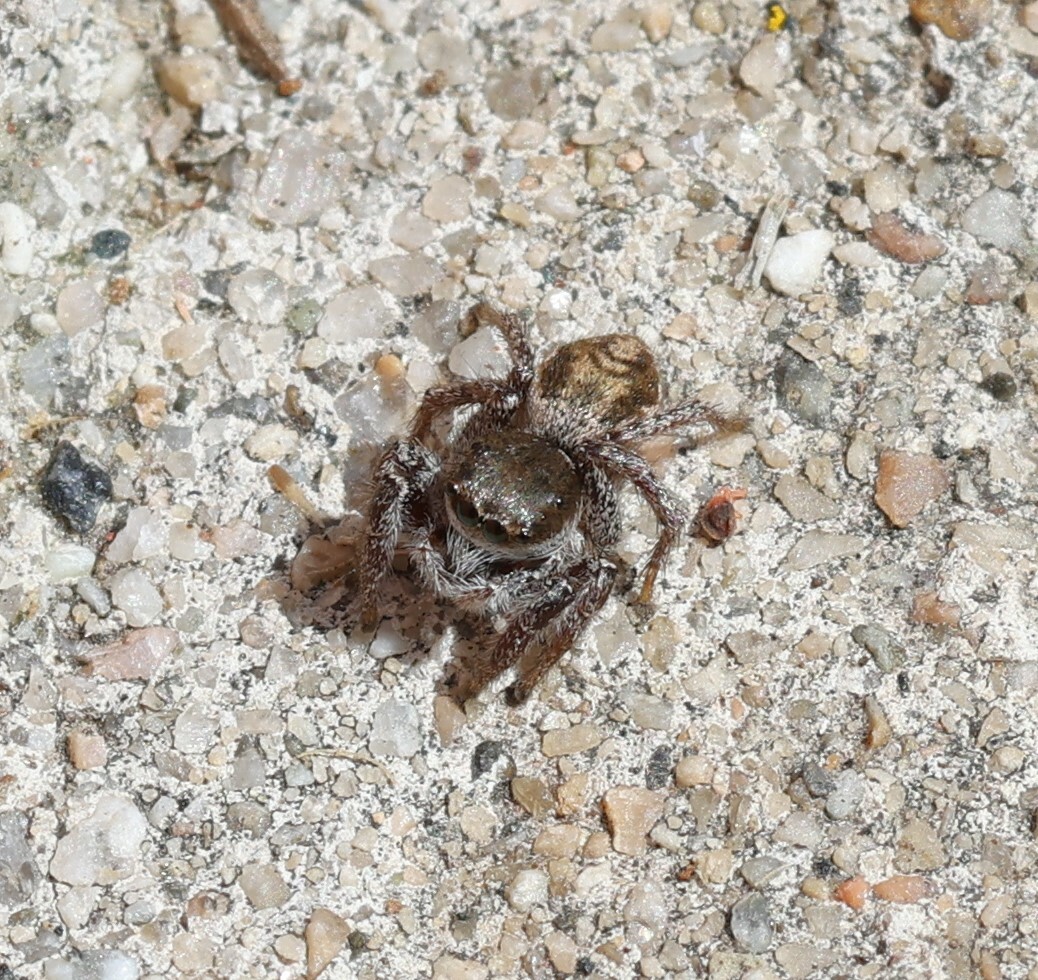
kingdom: Animalia
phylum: Arthropoda
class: Arachnida
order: Araneae
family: Salticidae
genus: Habronattus
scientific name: Habronattus pyrrithrix
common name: Jumping spider
